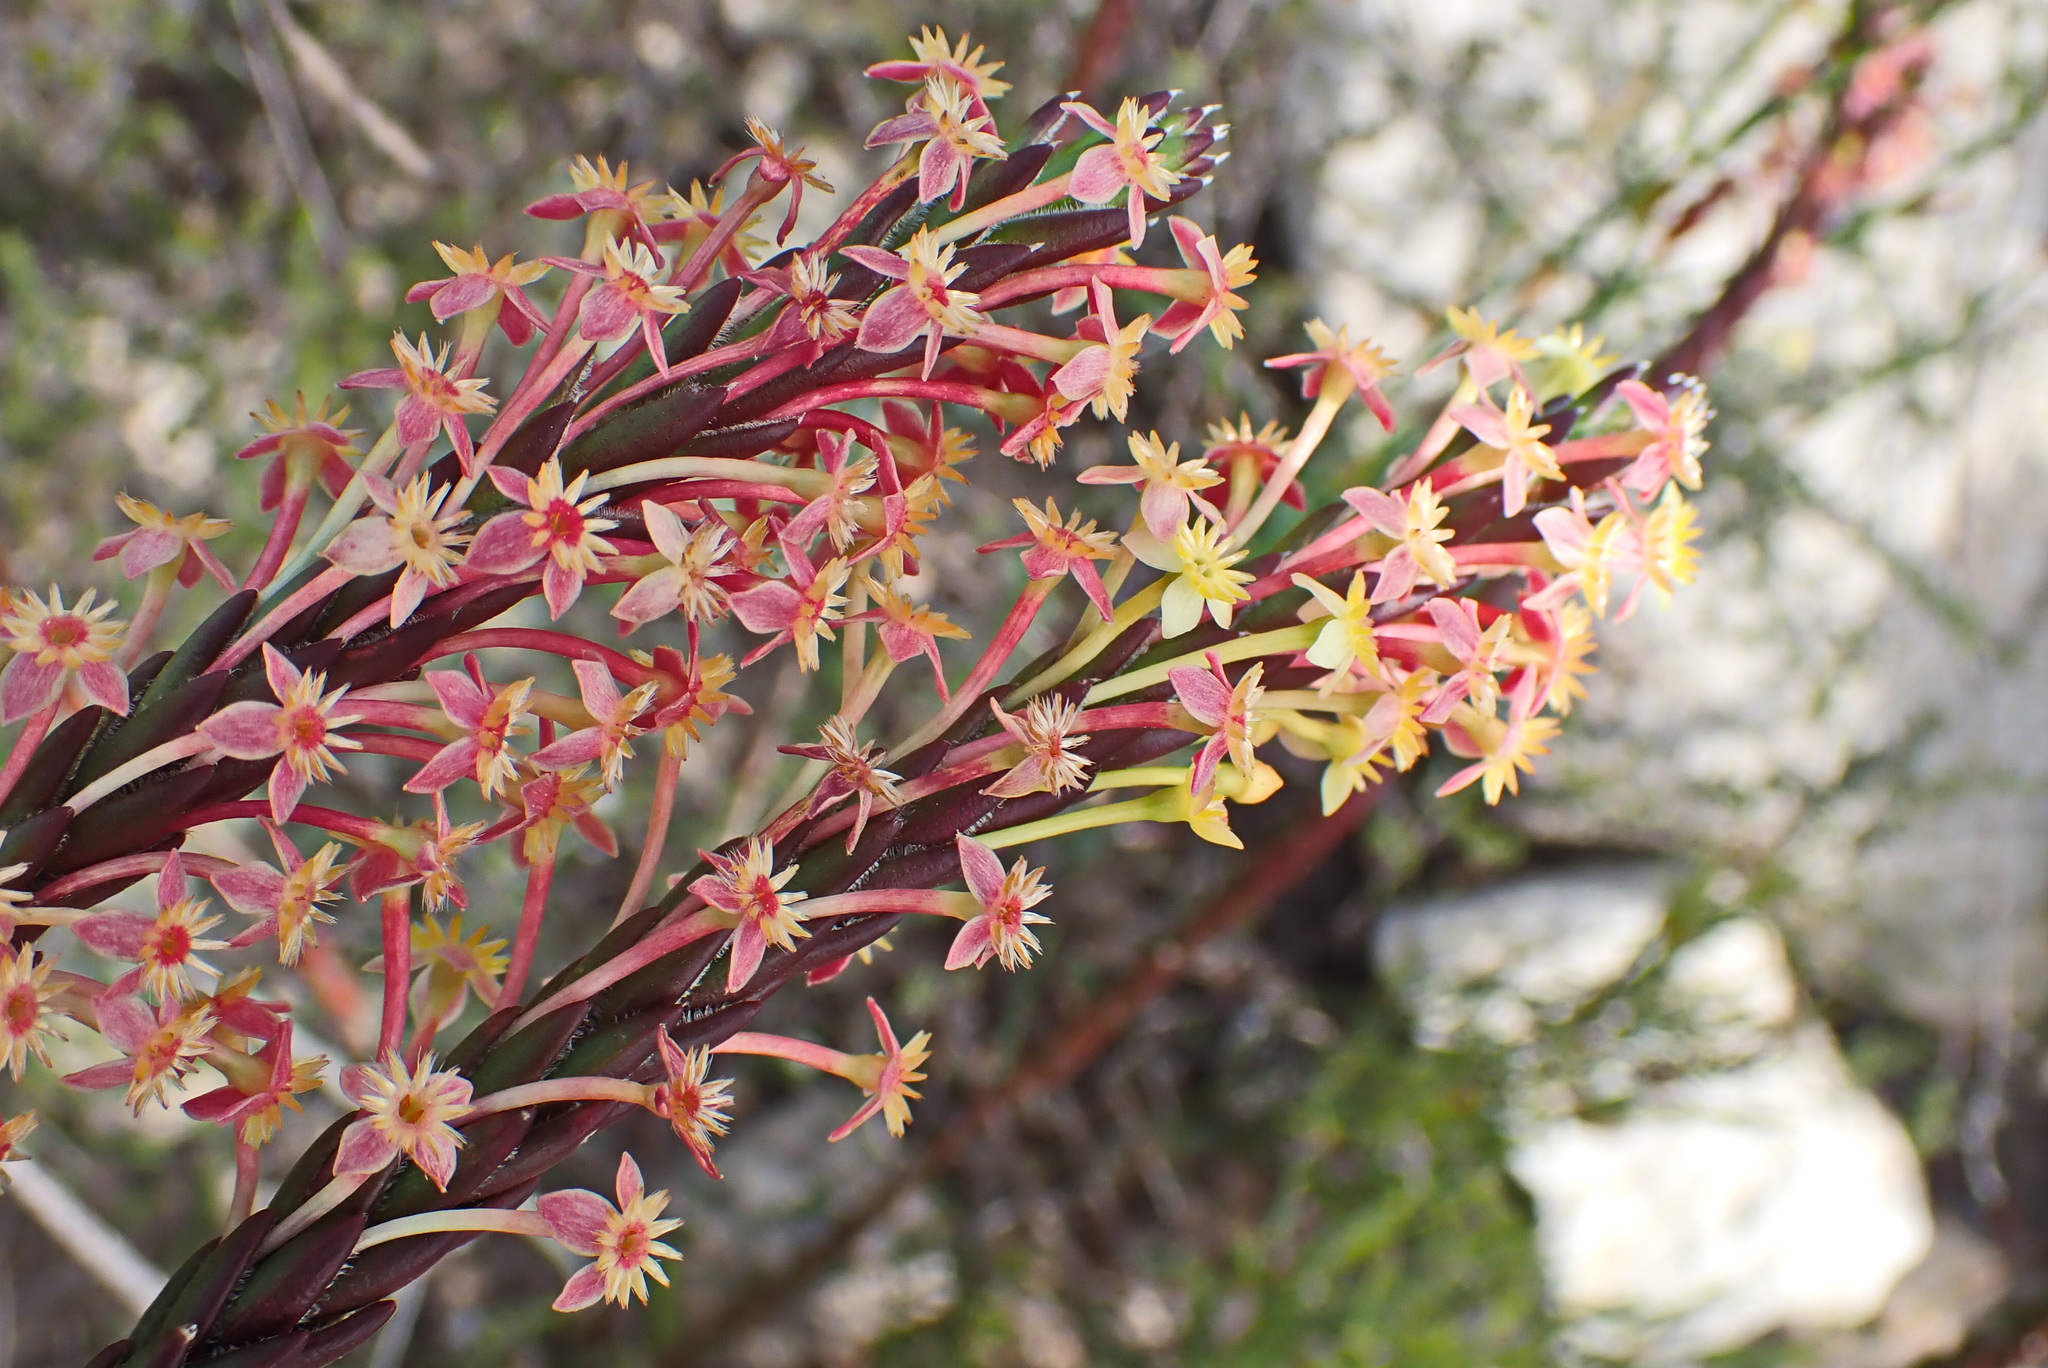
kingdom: Plantae
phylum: Tracheophyta
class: Magnoliopsida
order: Malvales
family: Thymelaeaceae
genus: Struthiola
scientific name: Struthiola rigida
